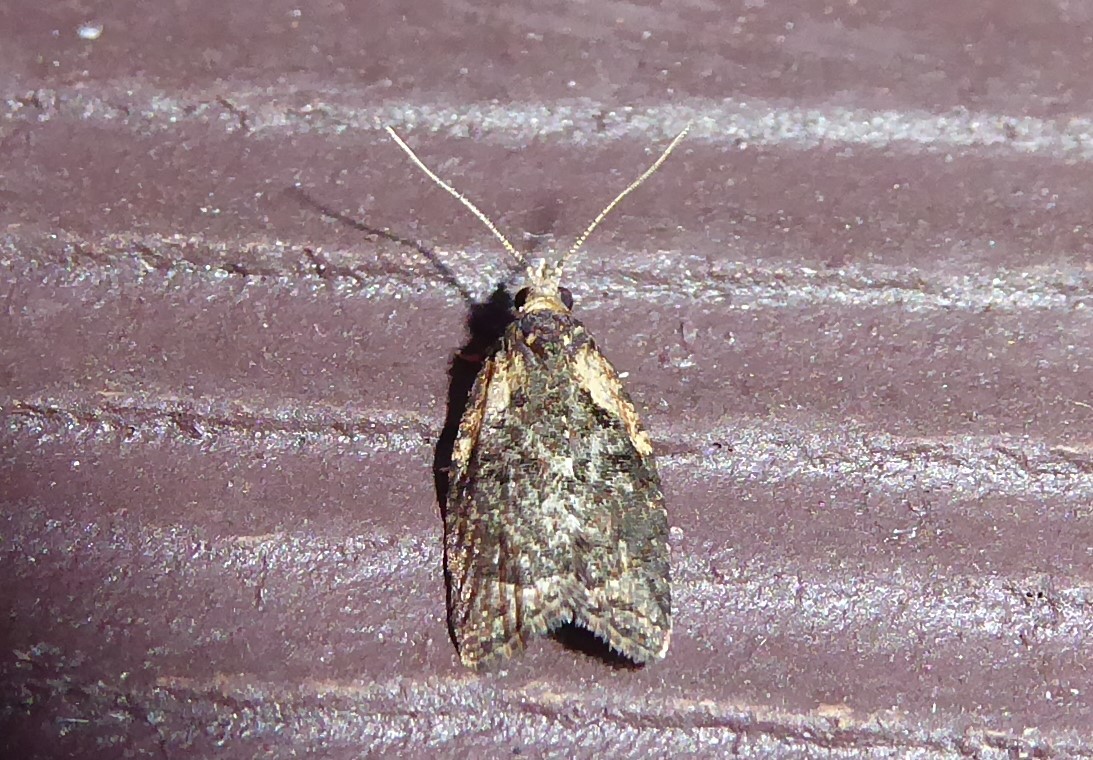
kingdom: Animalia
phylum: Arthropoda
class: Insecta
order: Lepidoptera
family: Tortricidae
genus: Capua
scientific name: Capua intractana
